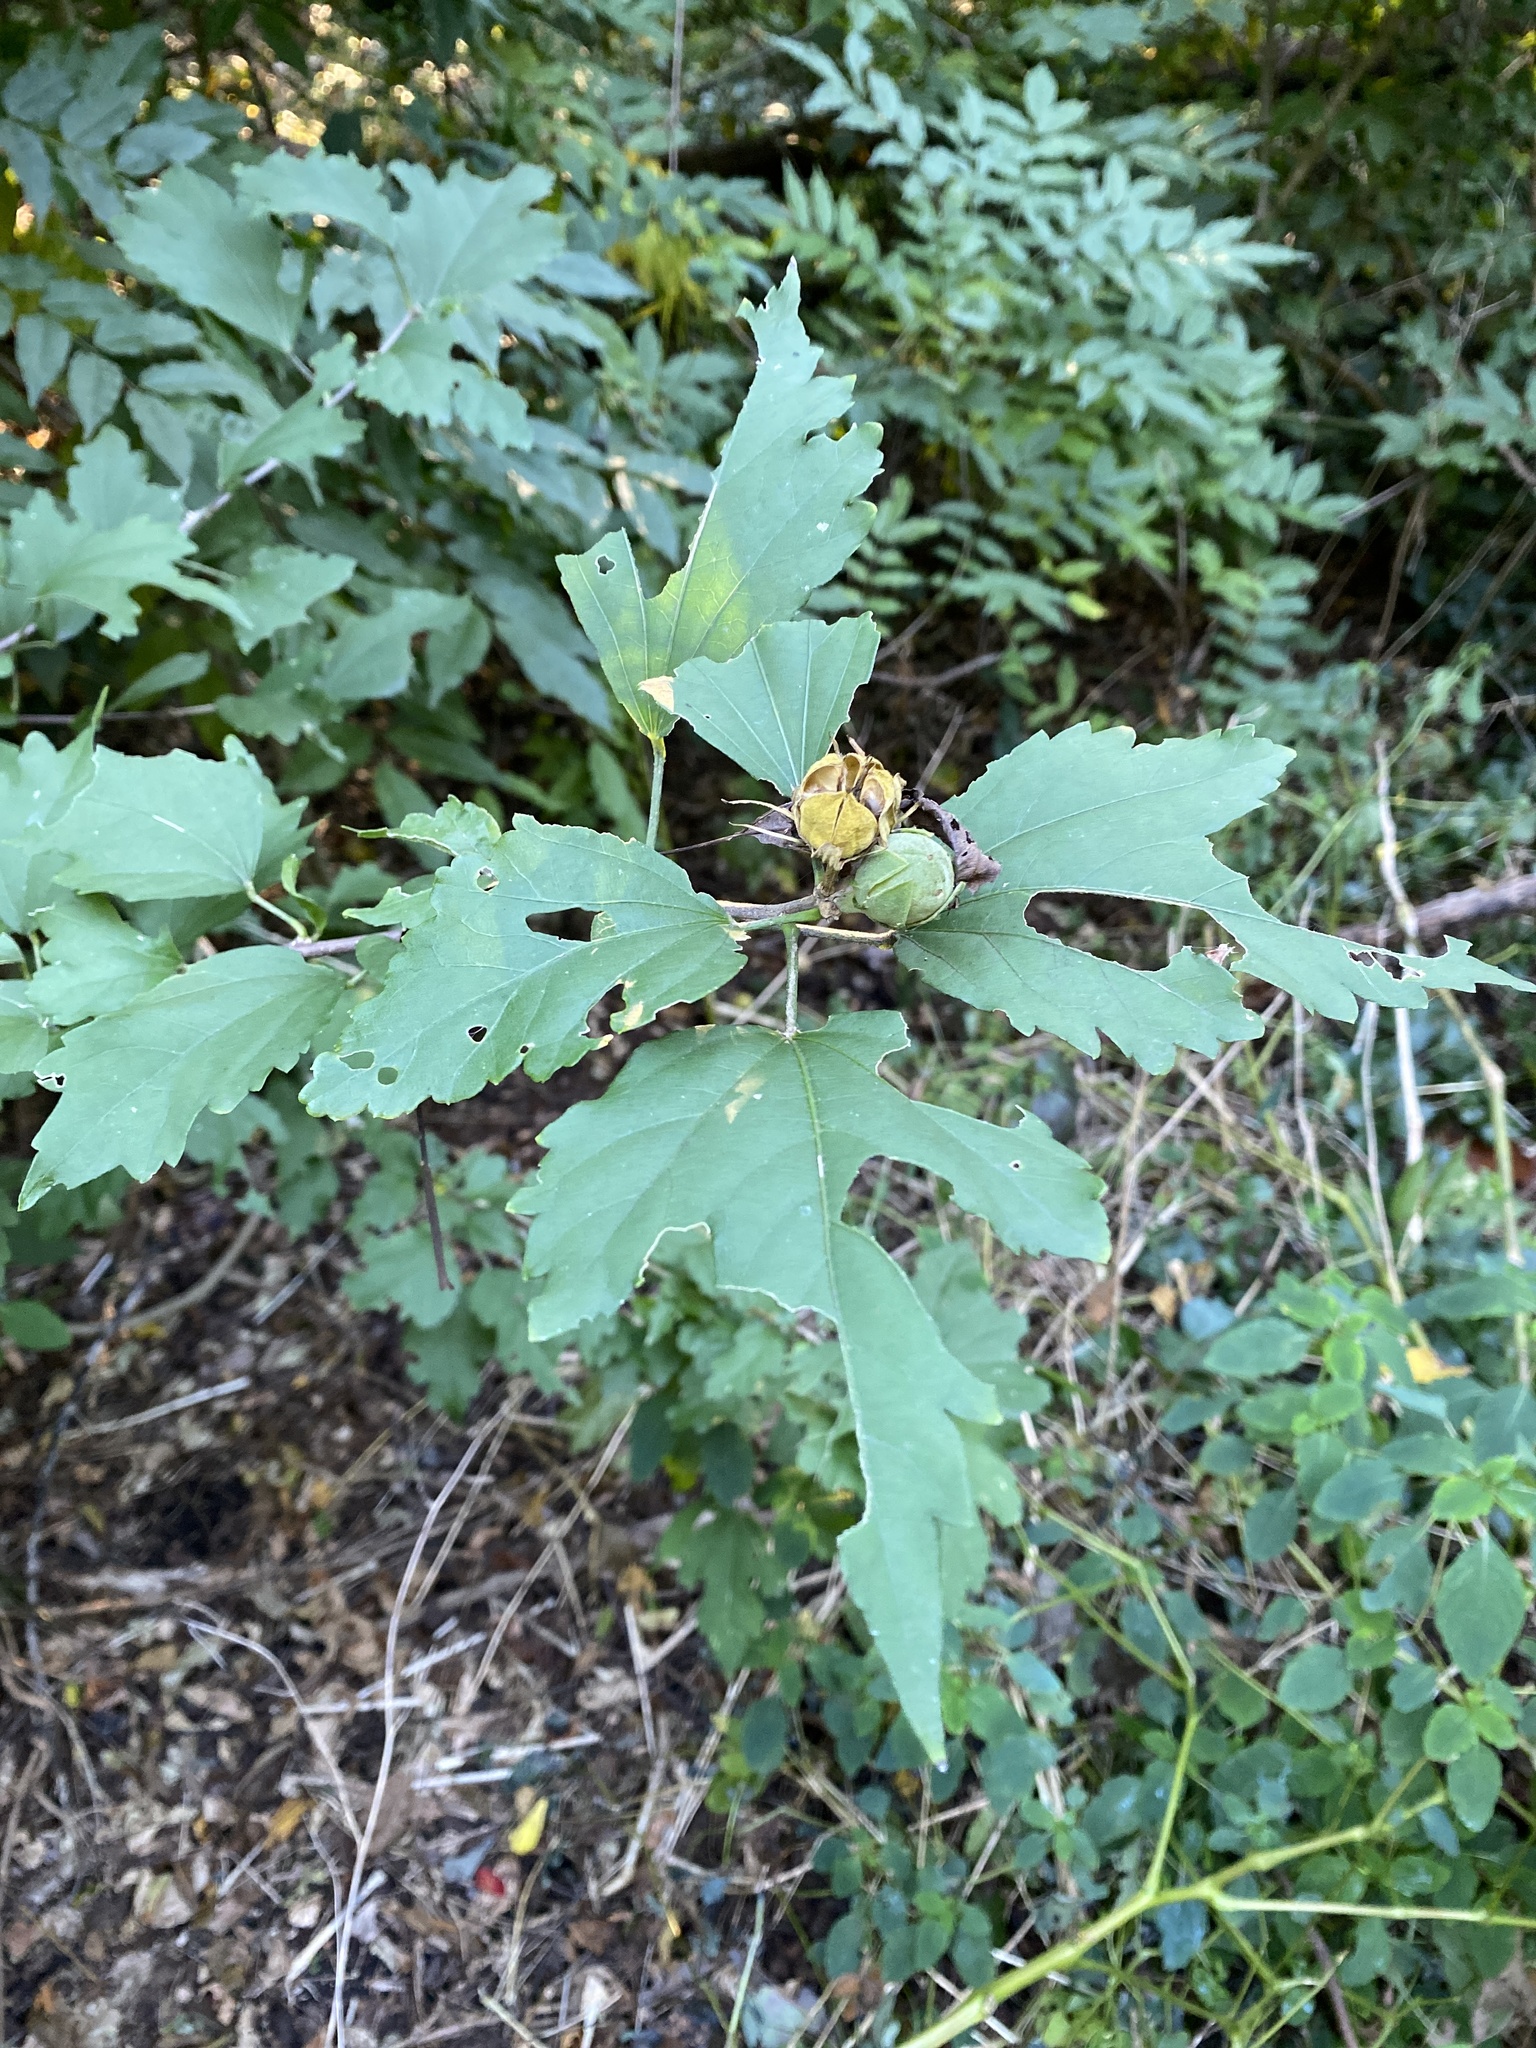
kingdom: Plantae
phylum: Tracheophyta
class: Magnoliopsida
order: Malvales
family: Malvaceae
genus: Hibiscus
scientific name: Hibiscus syriacus
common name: Syrian ketmia
